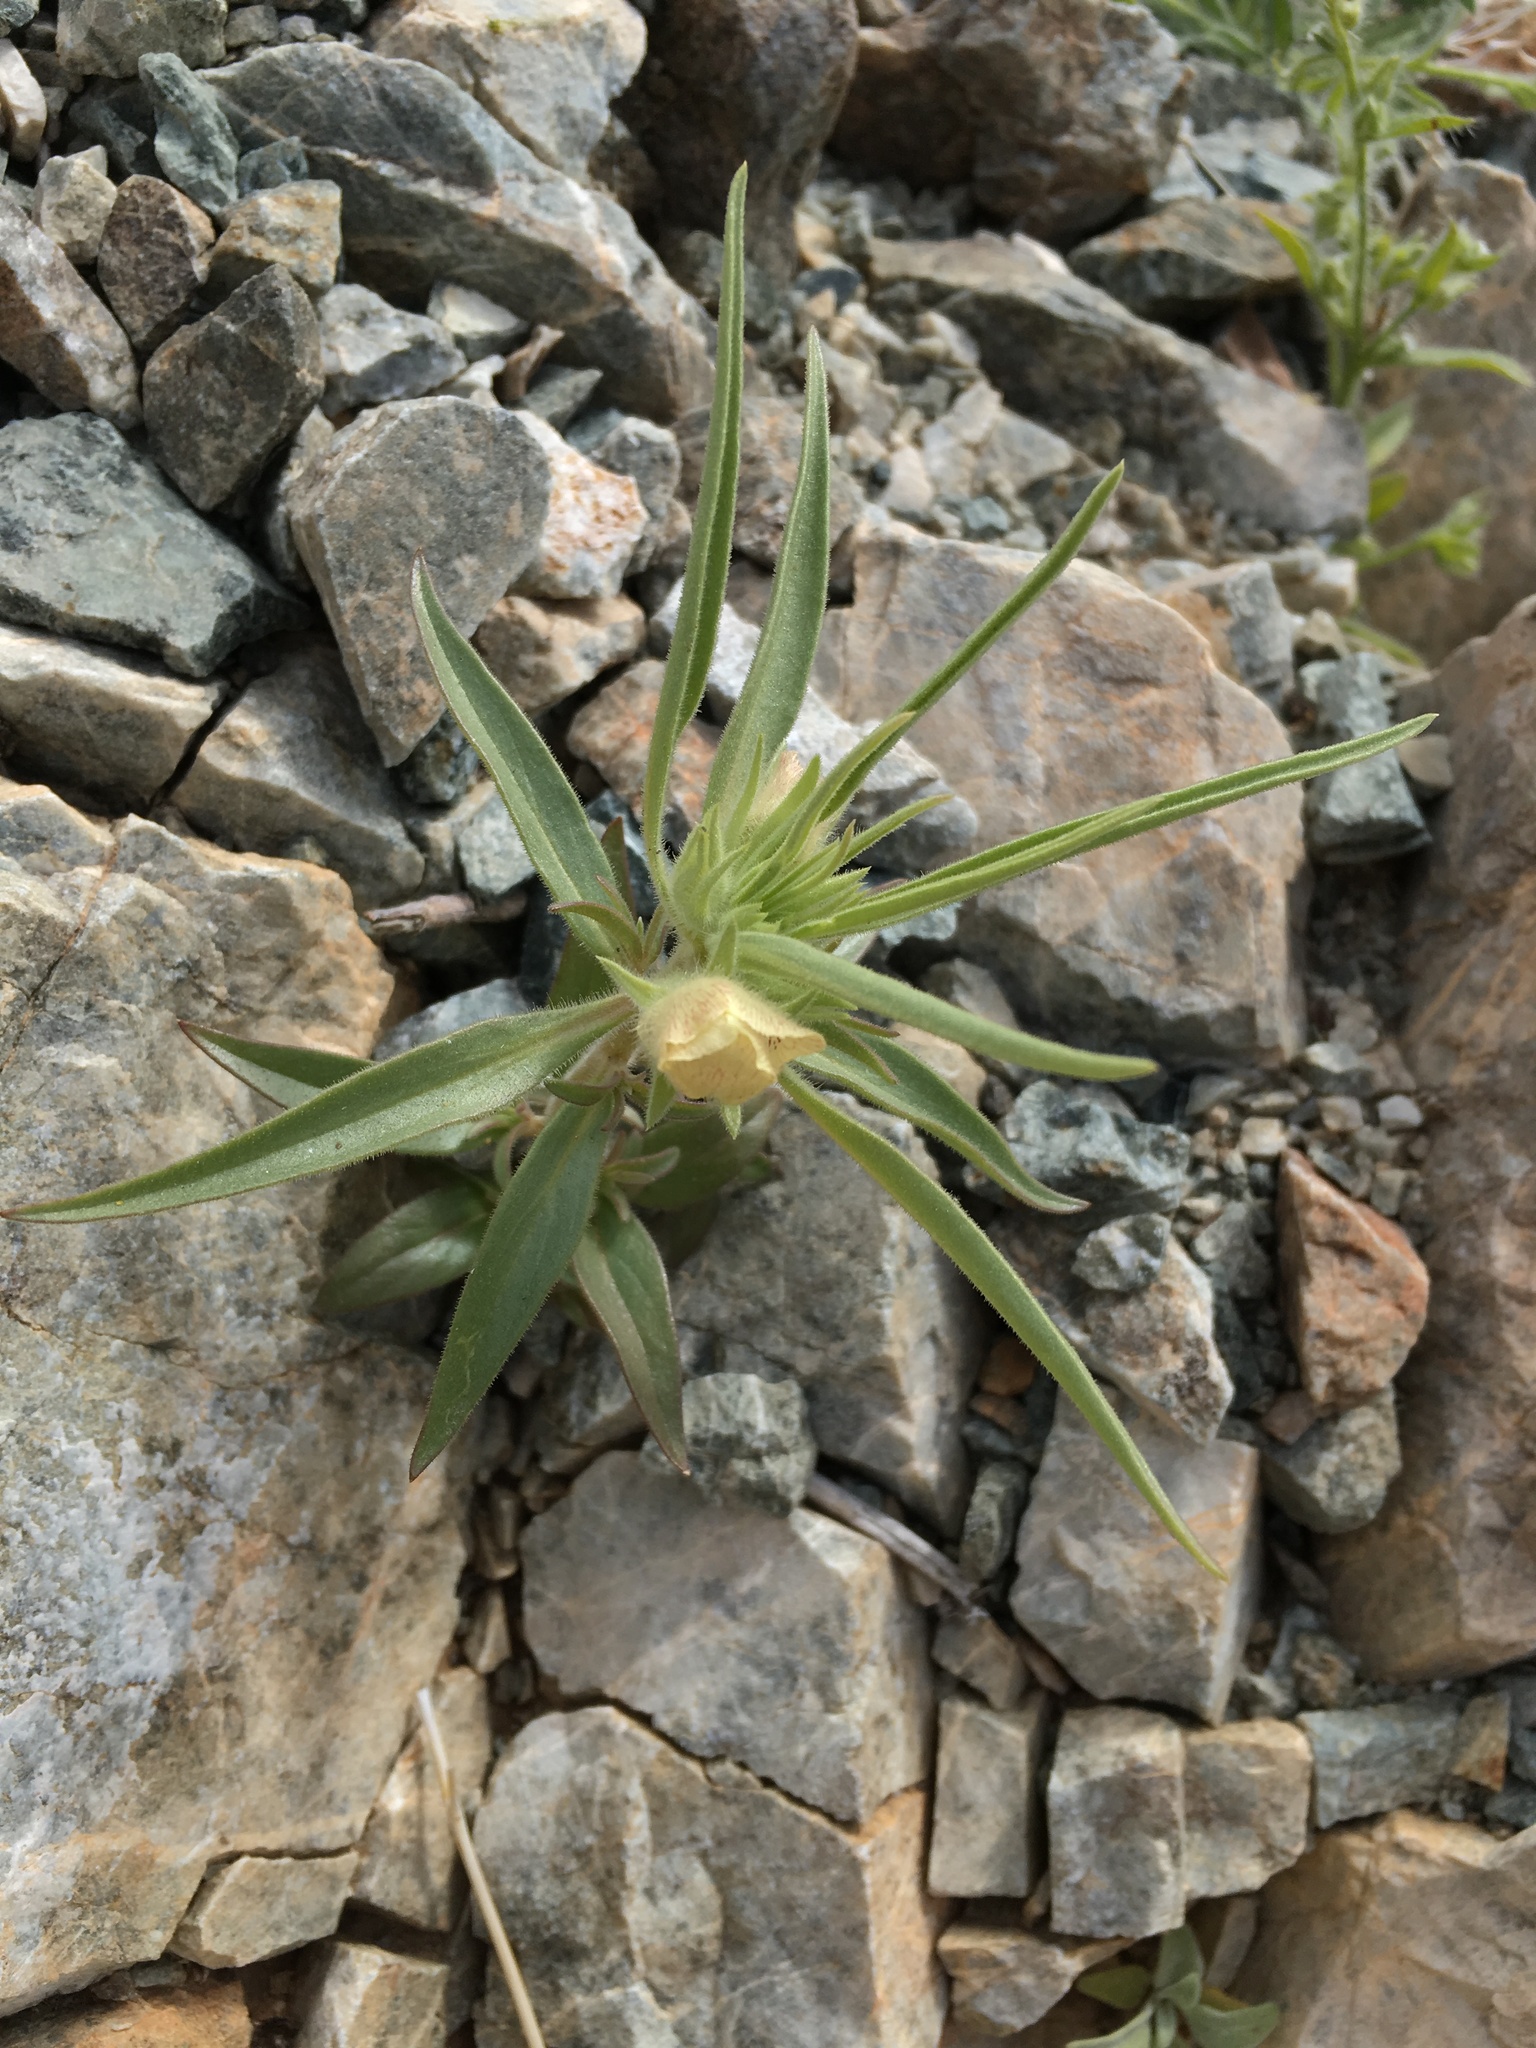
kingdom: Plantae
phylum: Tracheophyta
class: Magnoliopsida
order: Lamiales
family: Plantaginaceae
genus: Mohavea
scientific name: Mohavea confertiflora
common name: Ghost flower
